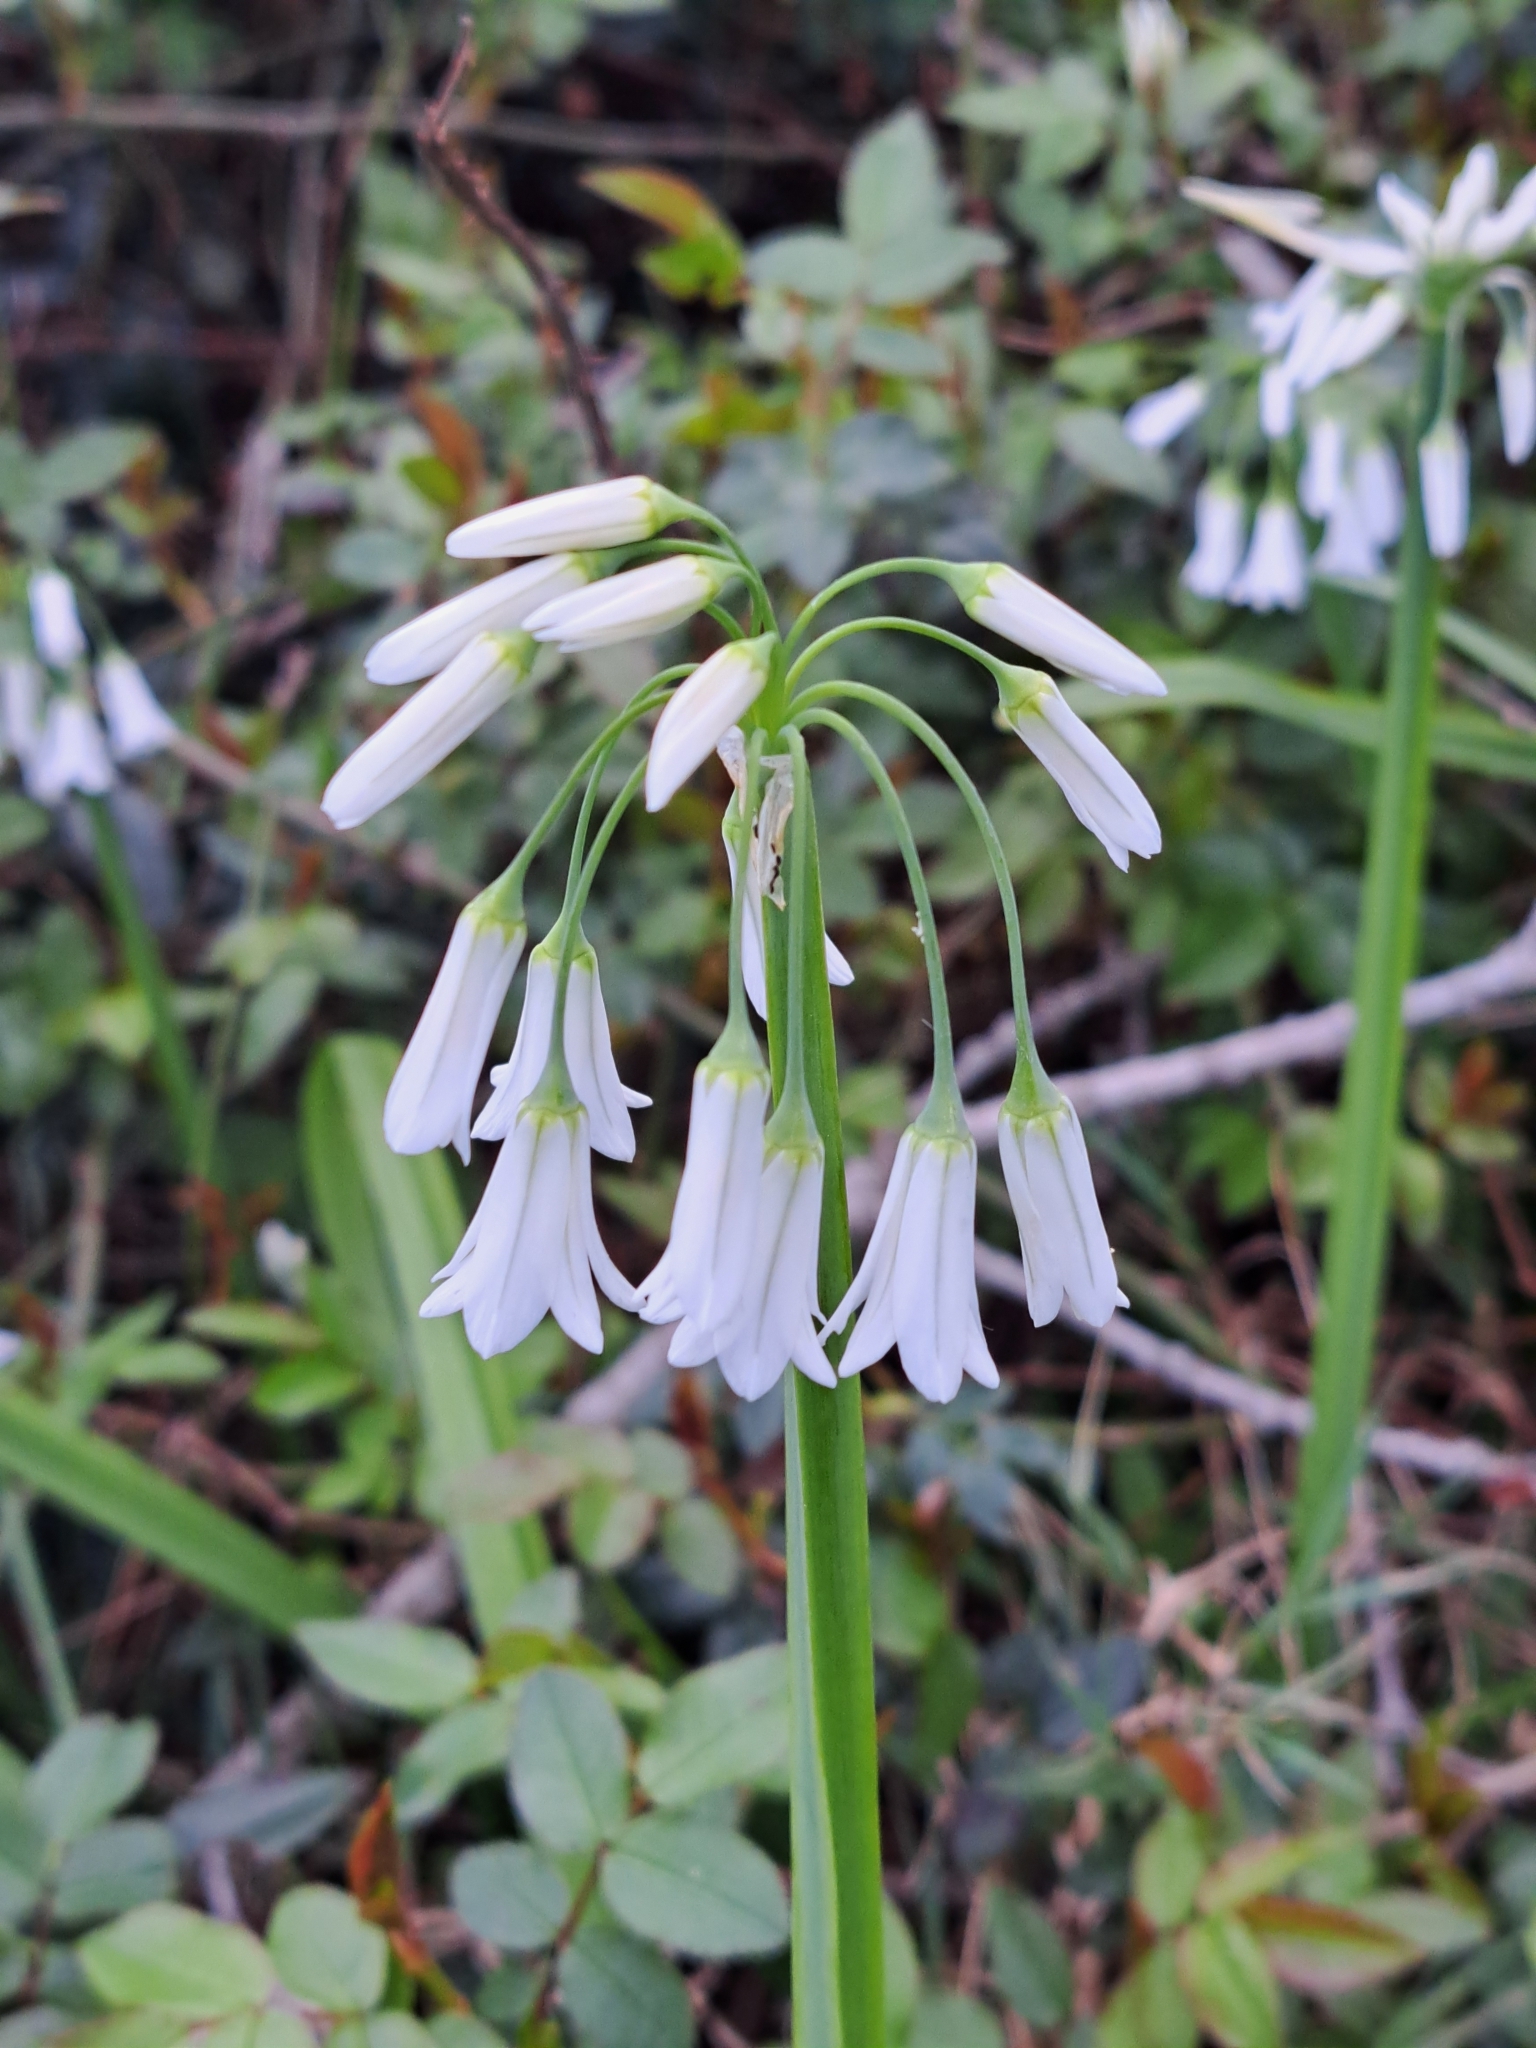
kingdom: Plantae
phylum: Tracheophyta
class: Liliopsida
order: Asparagales
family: Amaryllidaceae
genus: Allium
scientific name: Allium triquetrum
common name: Three-cornered garlic
